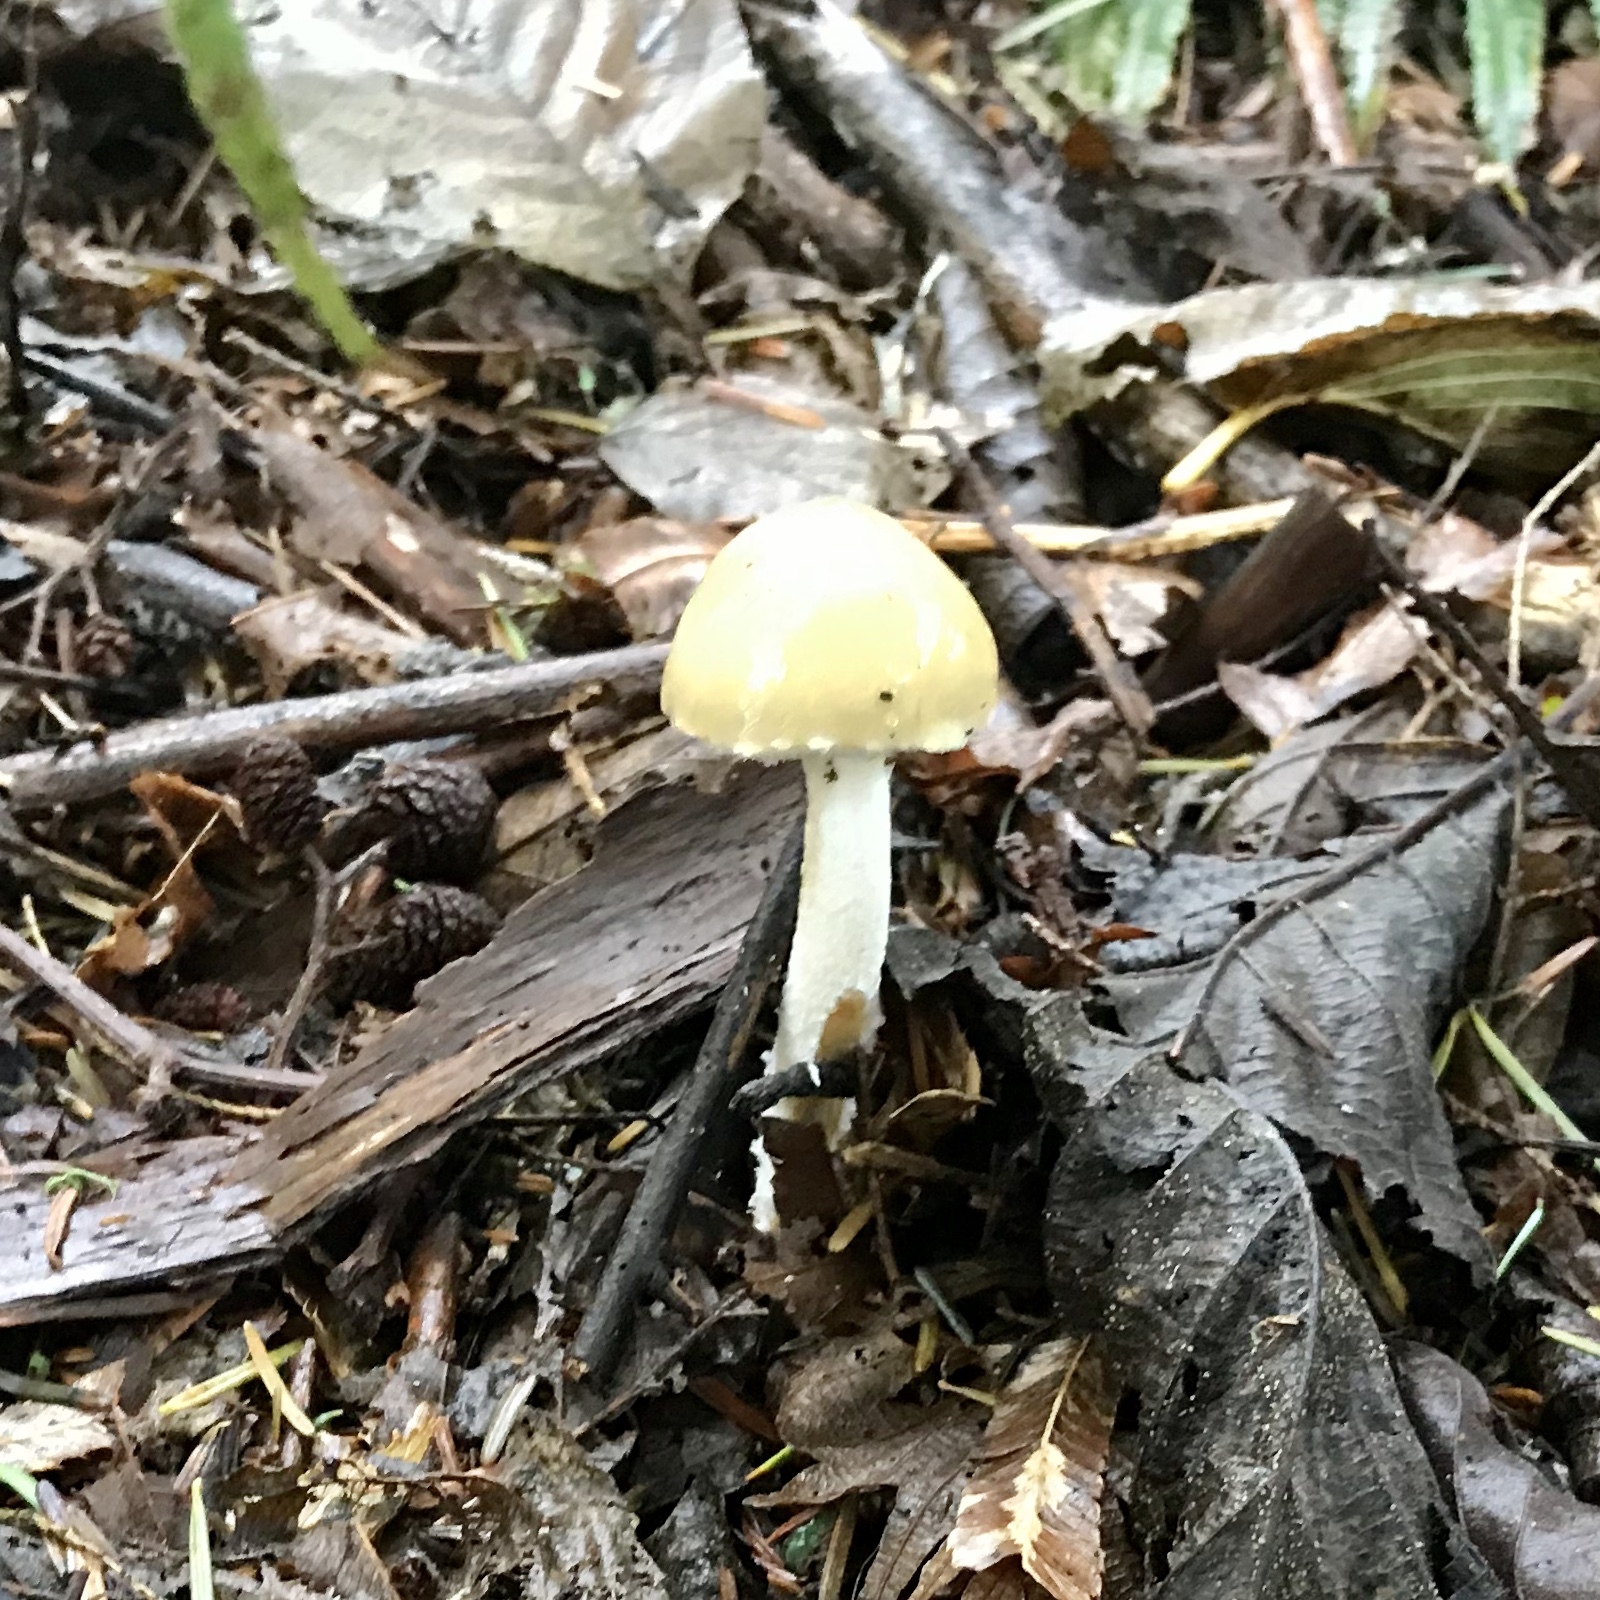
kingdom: Fungi
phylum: Basidiomycota
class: Agaricomycetes
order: Agaricales
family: Strophariaceae
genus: Stropharia
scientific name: Stropharia ambigua
